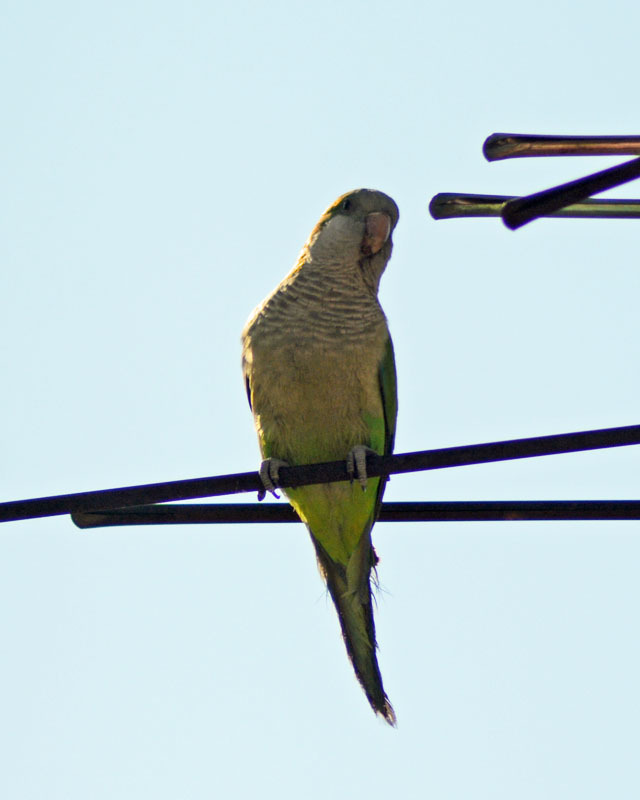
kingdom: Animalia
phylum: Chordata
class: Aves
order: Psittaciformes
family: Psittacidae
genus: Myiopsitta
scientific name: Myiopsitta monachus
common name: Monk parakeet
